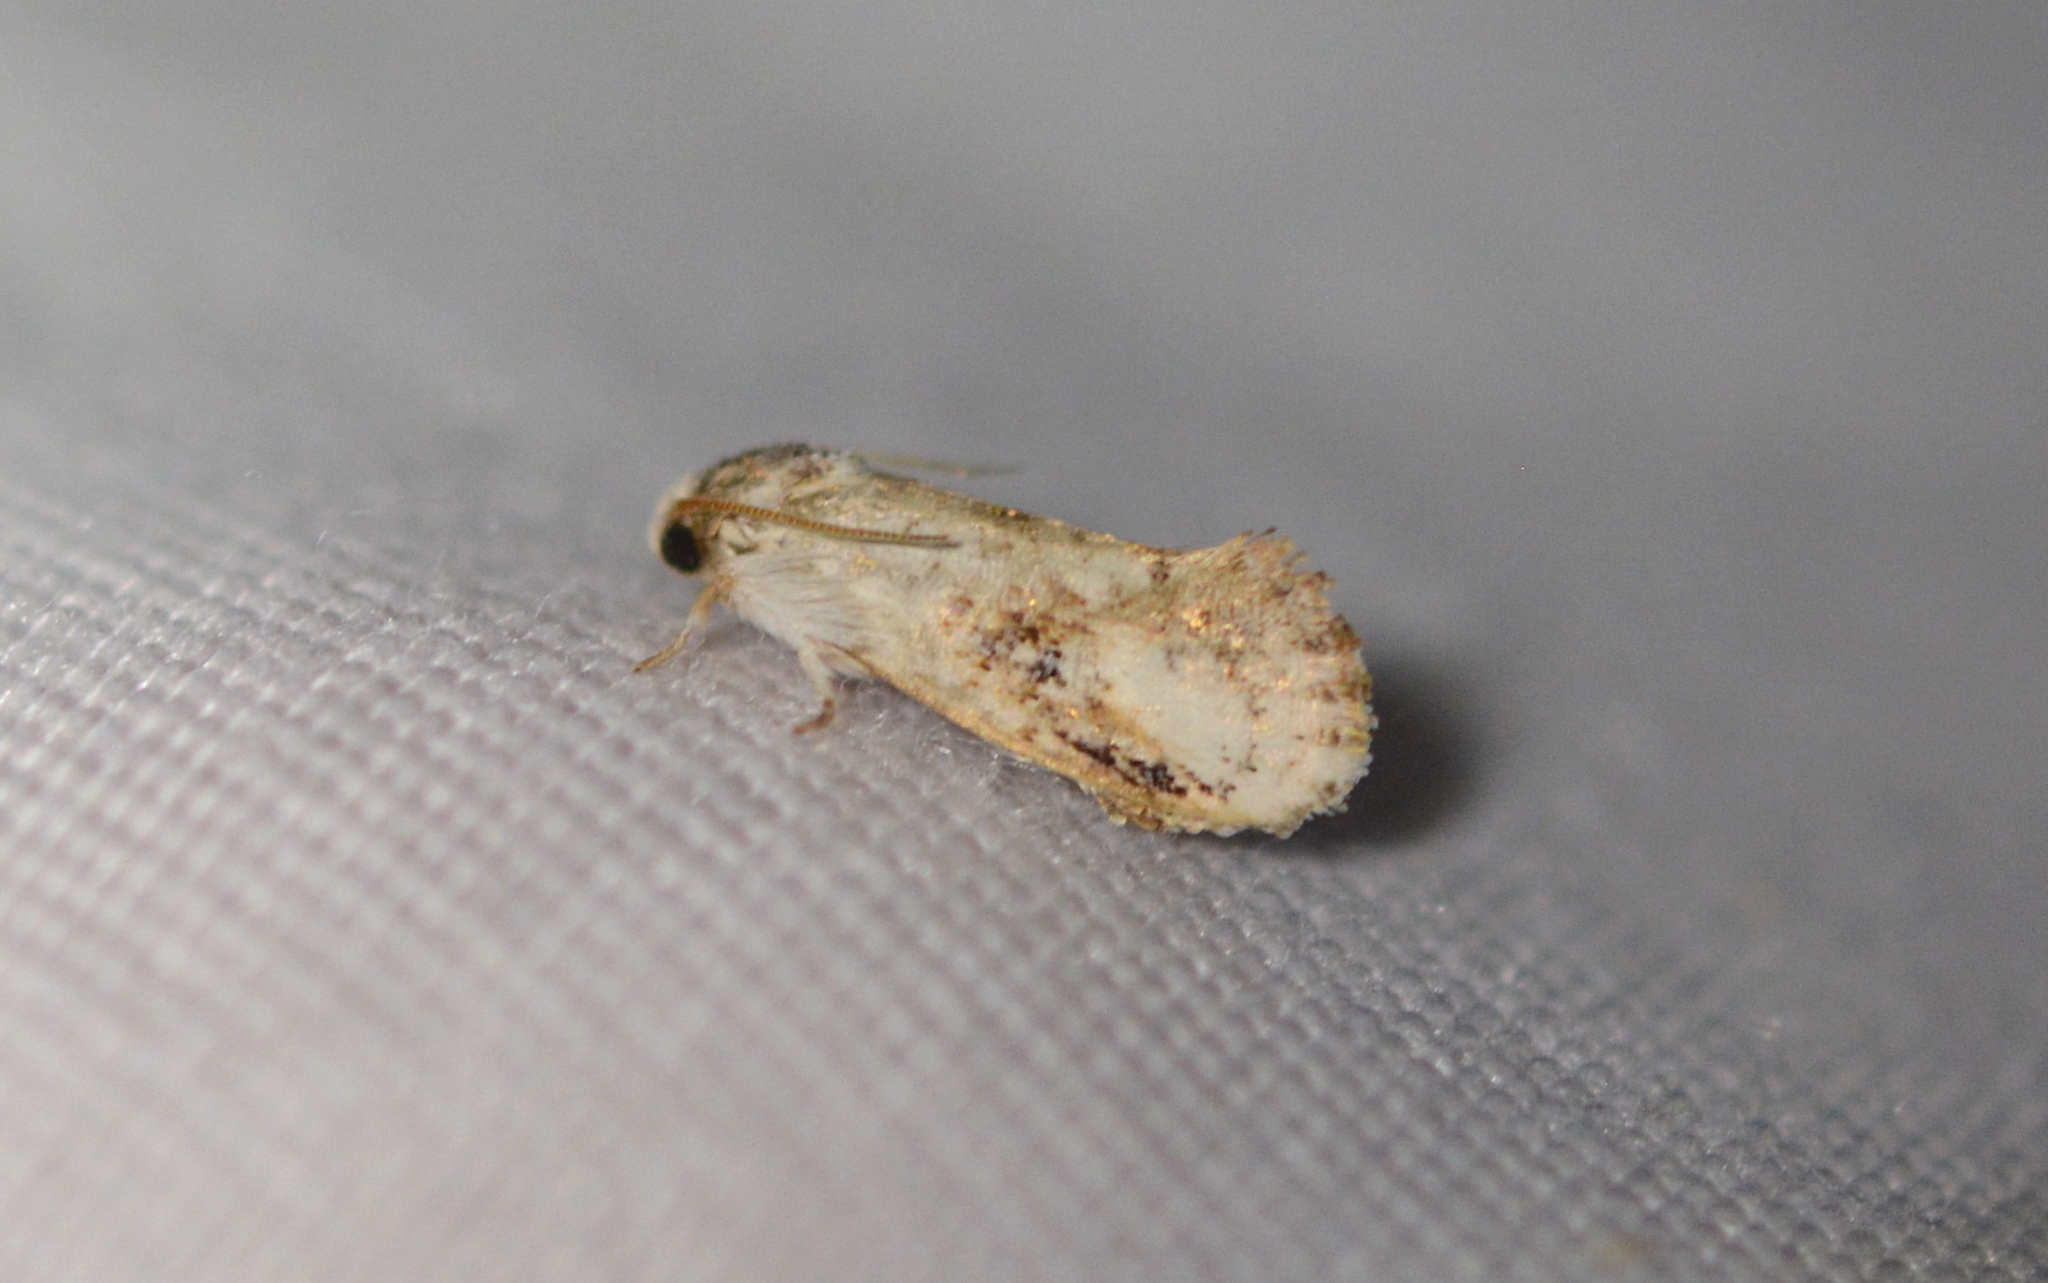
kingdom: Animalia
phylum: Arthropoda
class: Insecta
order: Lepidoptera
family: Tineidae
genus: Acrolophus
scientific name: Acrolophus mycetophagus
